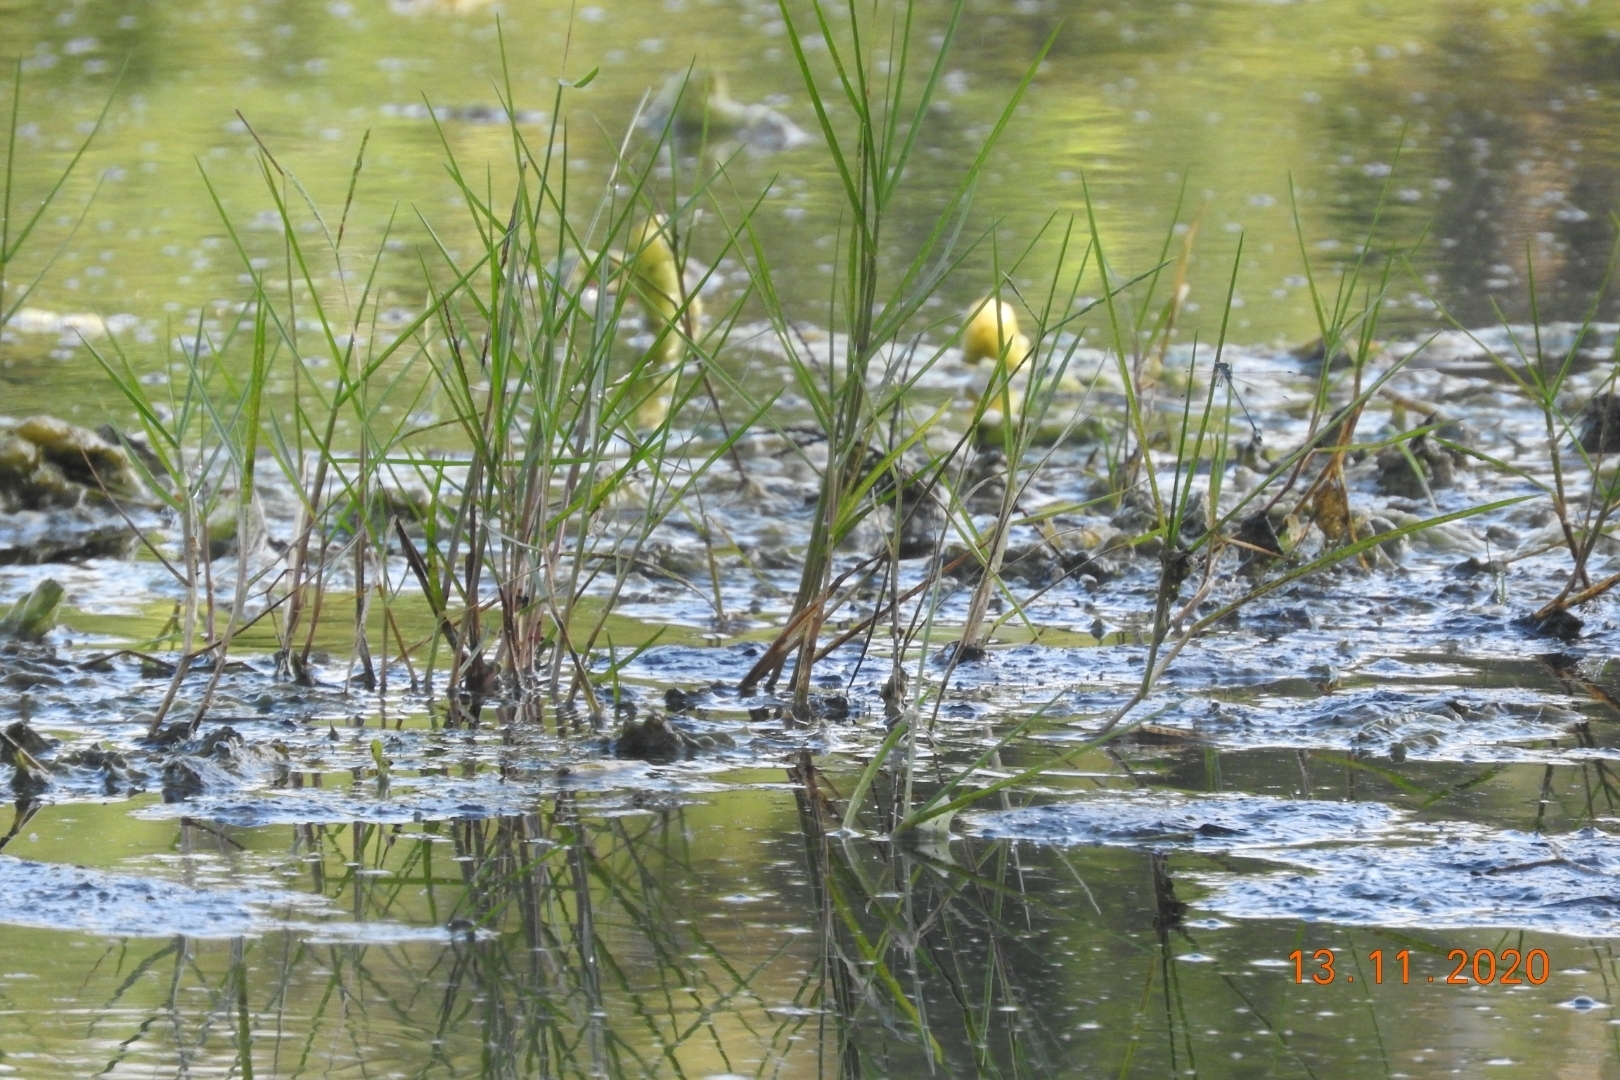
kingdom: Plantae
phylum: Tracheophyta
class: Magnoliopsida
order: Nymphaeales
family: Nymphaeaceae
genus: Nymphaea
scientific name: Nymphaea mexicana
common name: Banana water-lily
